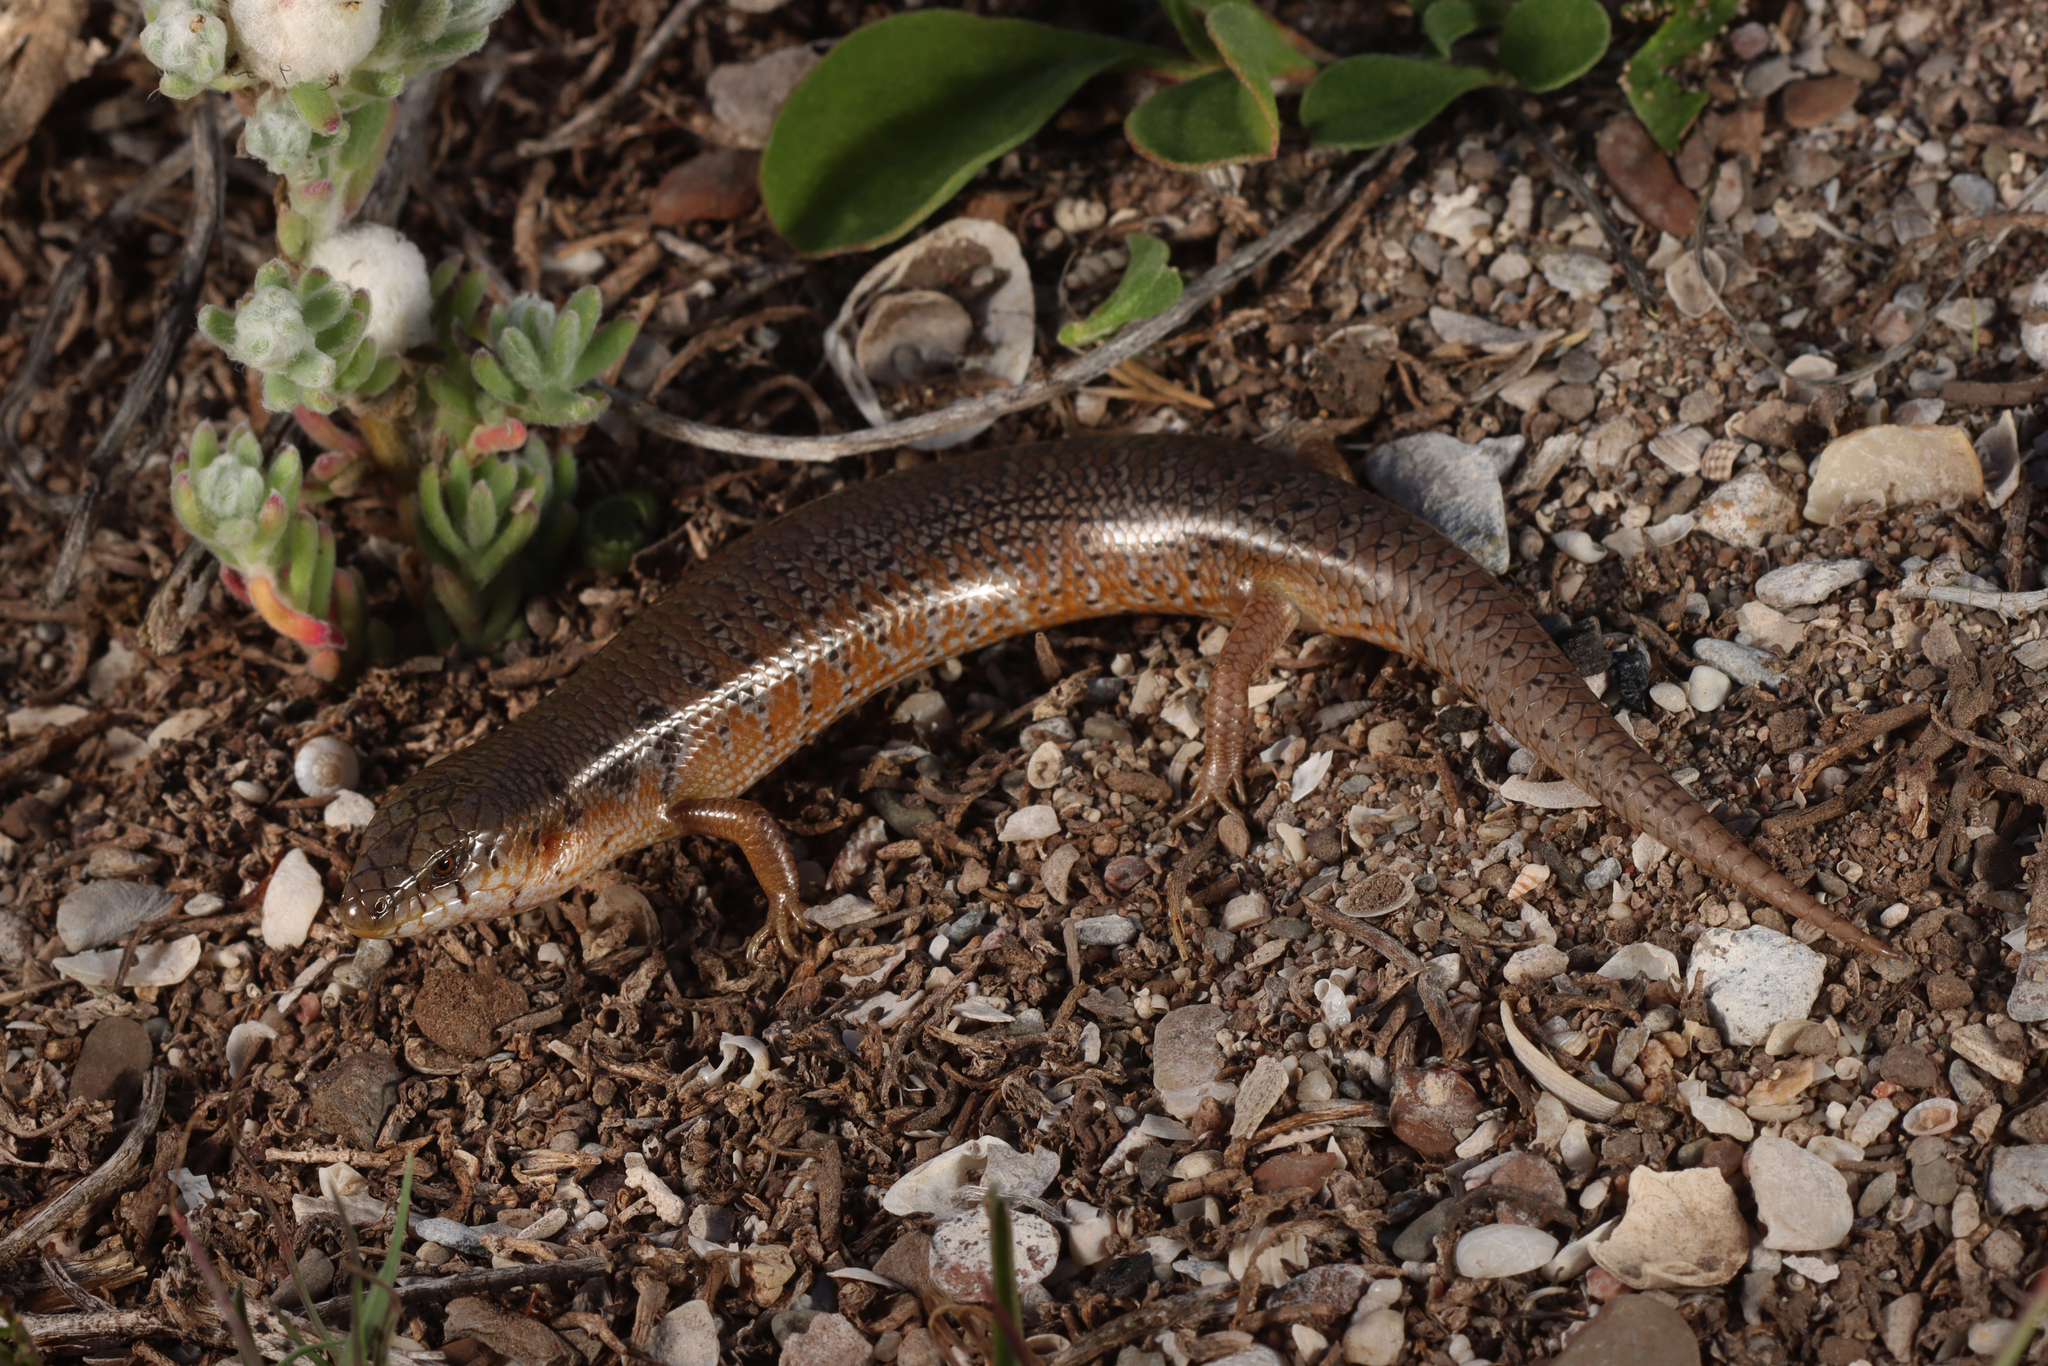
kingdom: Animalia
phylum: Chordata
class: Squamata
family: Scincidae
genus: Cyclodomorphus
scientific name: Cyclodomorphus venustus
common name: Slender bluetongue
